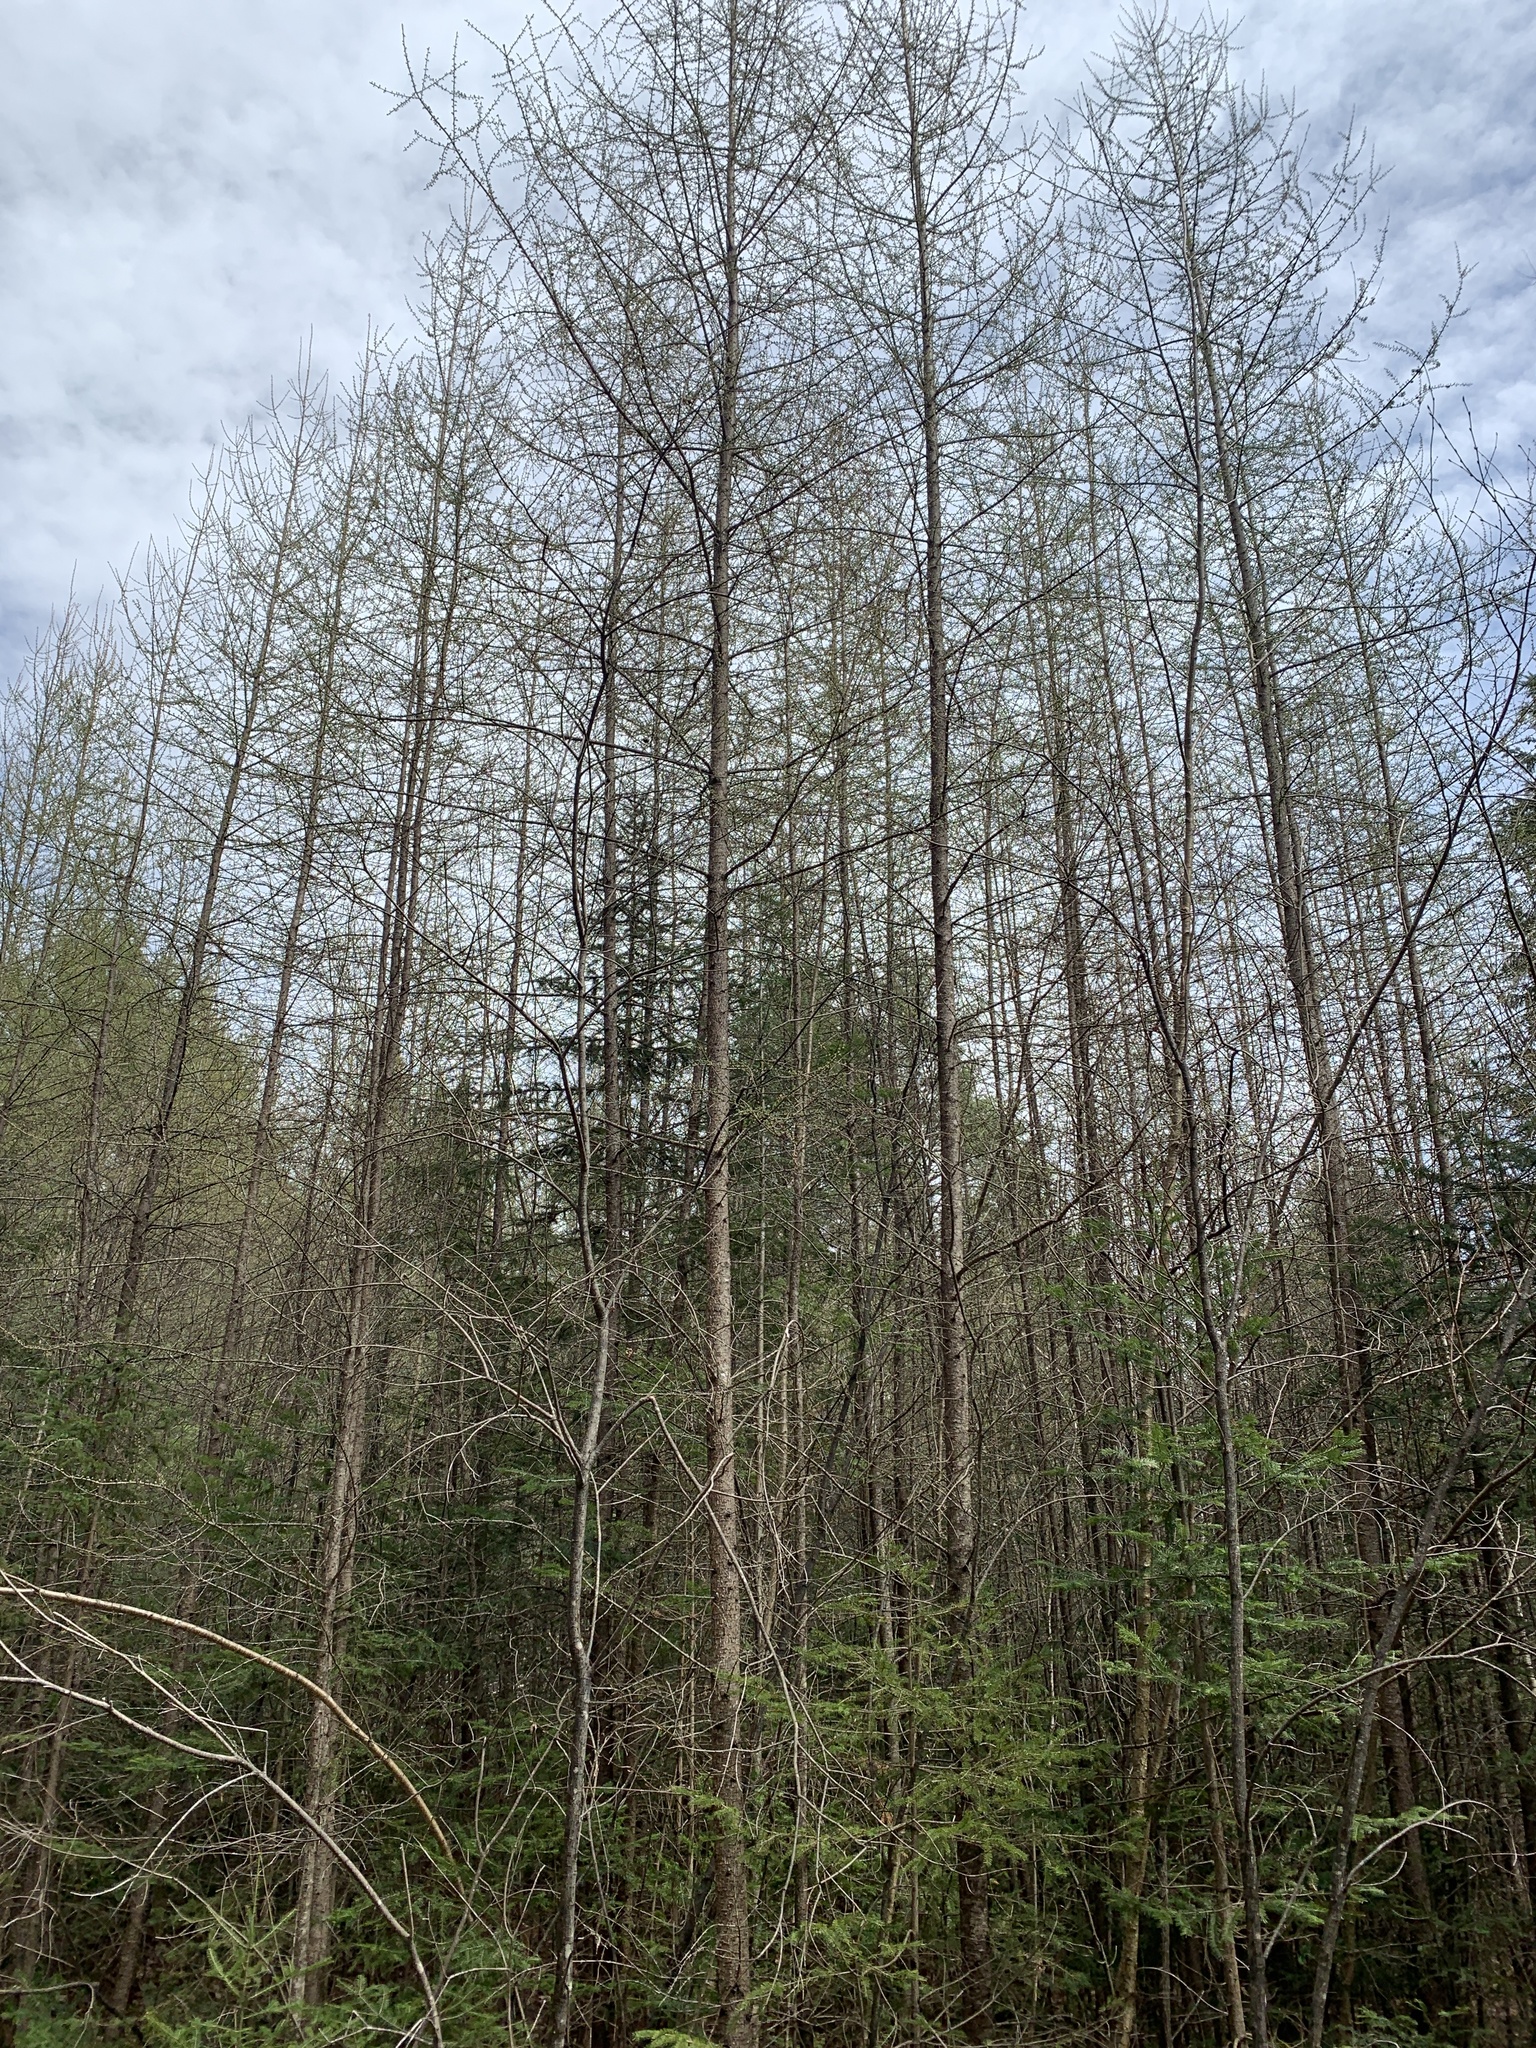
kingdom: Plantae
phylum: Tracheophyta
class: Pinopsida
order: Pinales
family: Pinaceae
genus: Larix
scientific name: Larix laricina
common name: American larch
